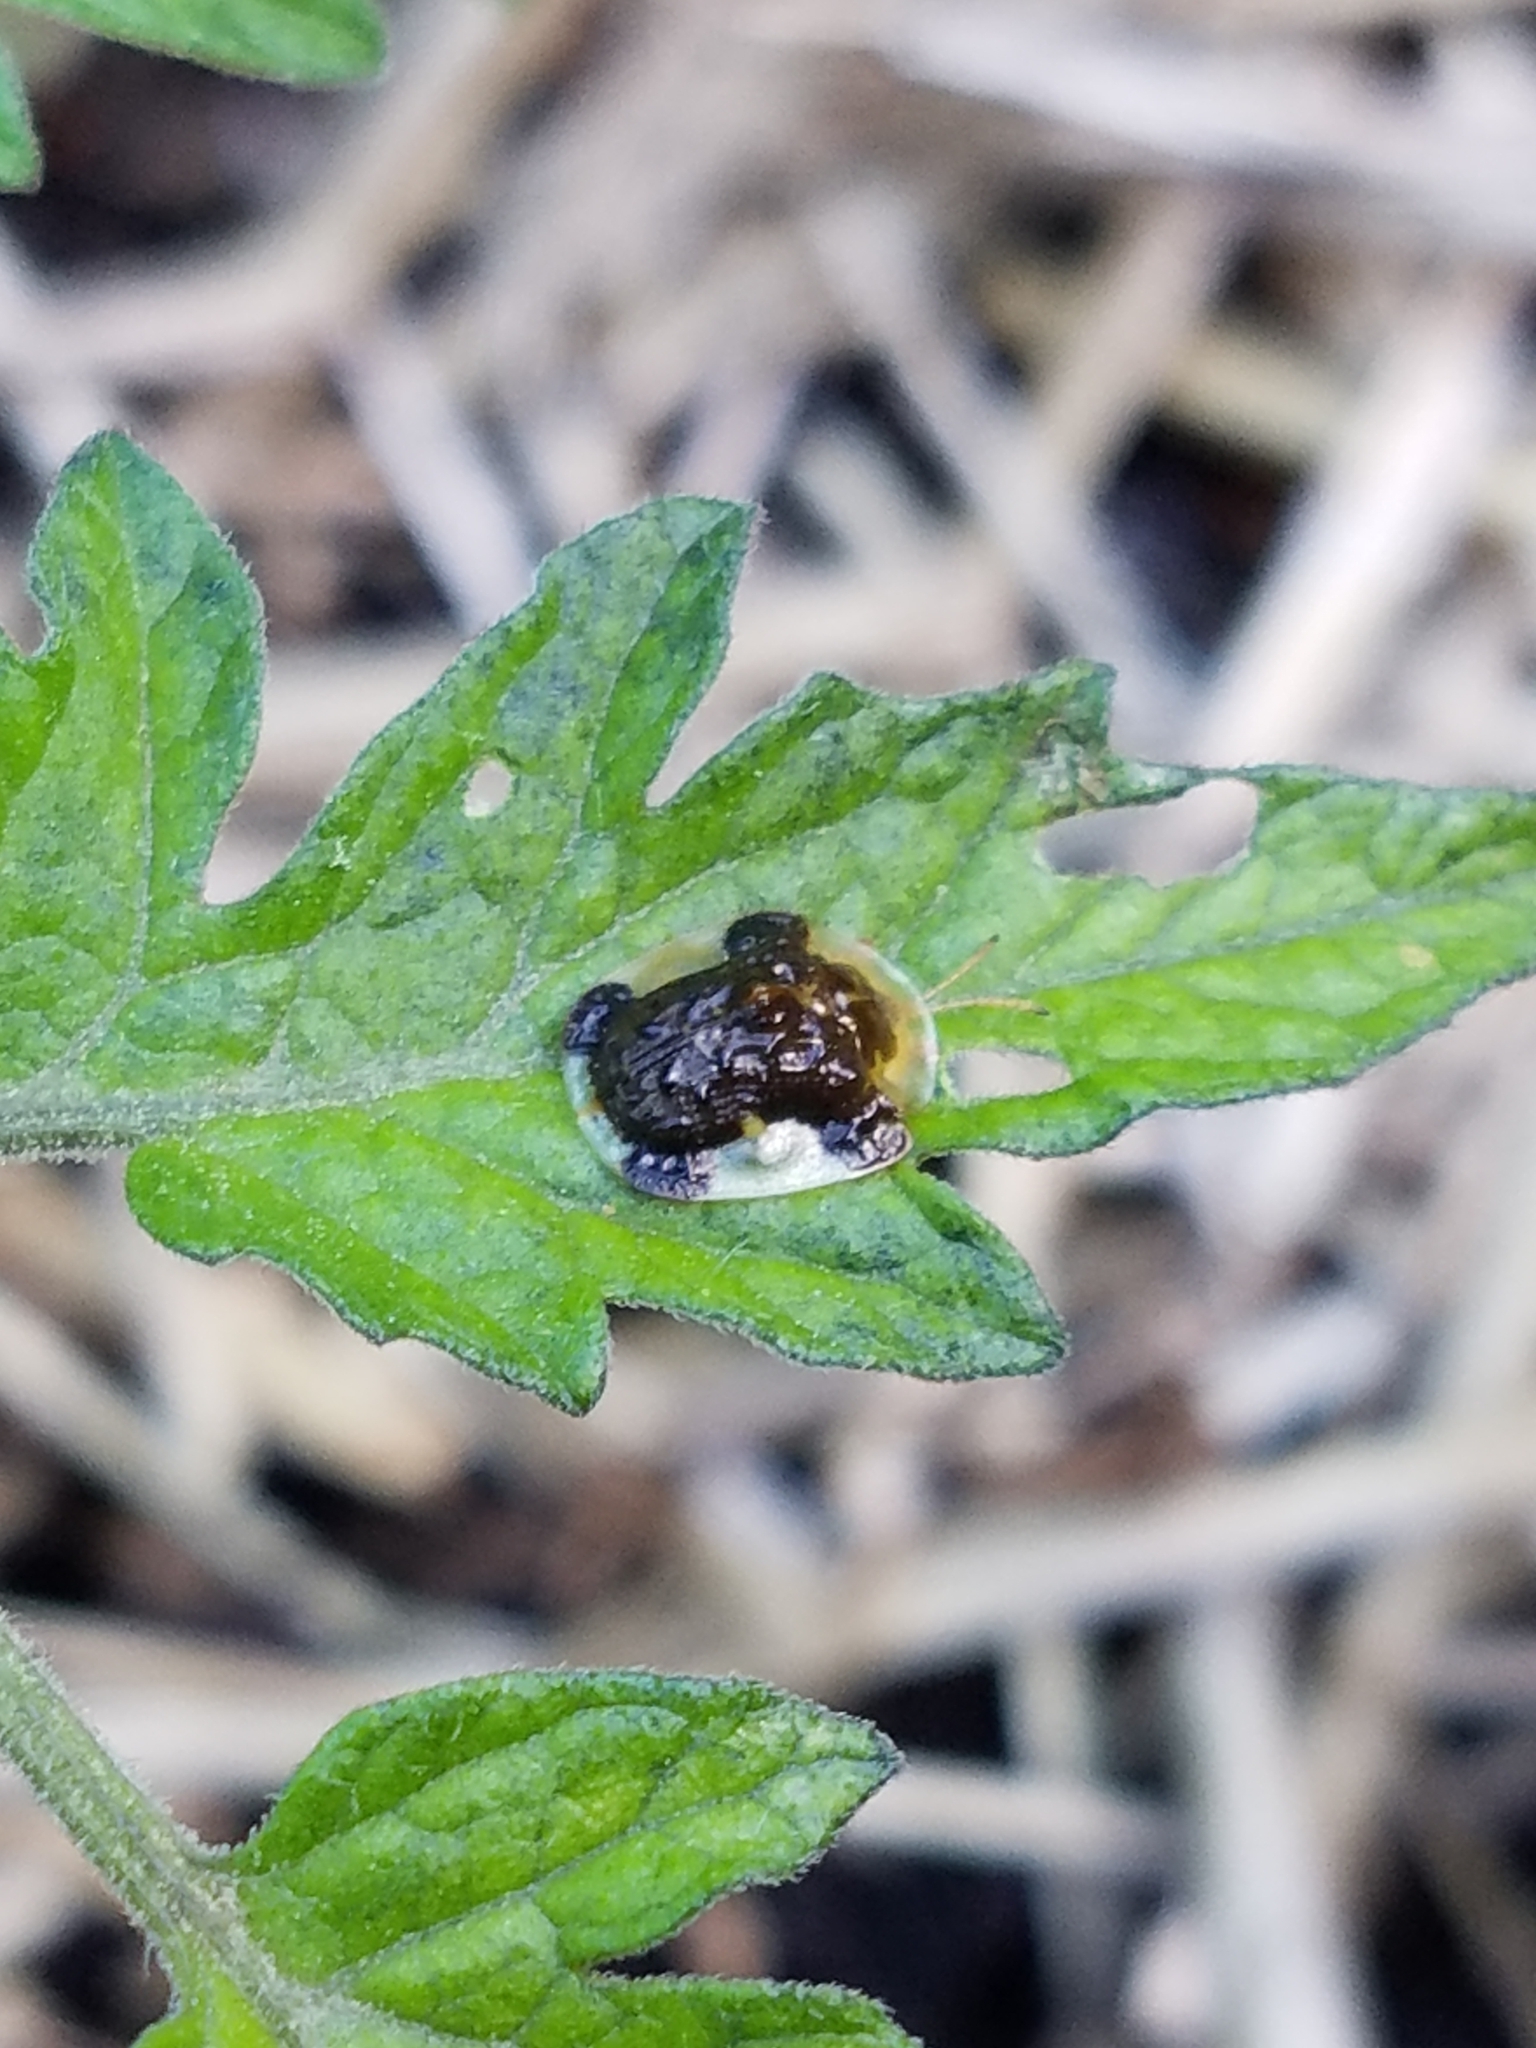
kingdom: Animalia
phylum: Arthropoda
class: Insecta
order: Coleoptera
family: Chrysomelidae
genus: Helocassis
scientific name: Helocassis clavata
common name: Clavate tortoise beetle
